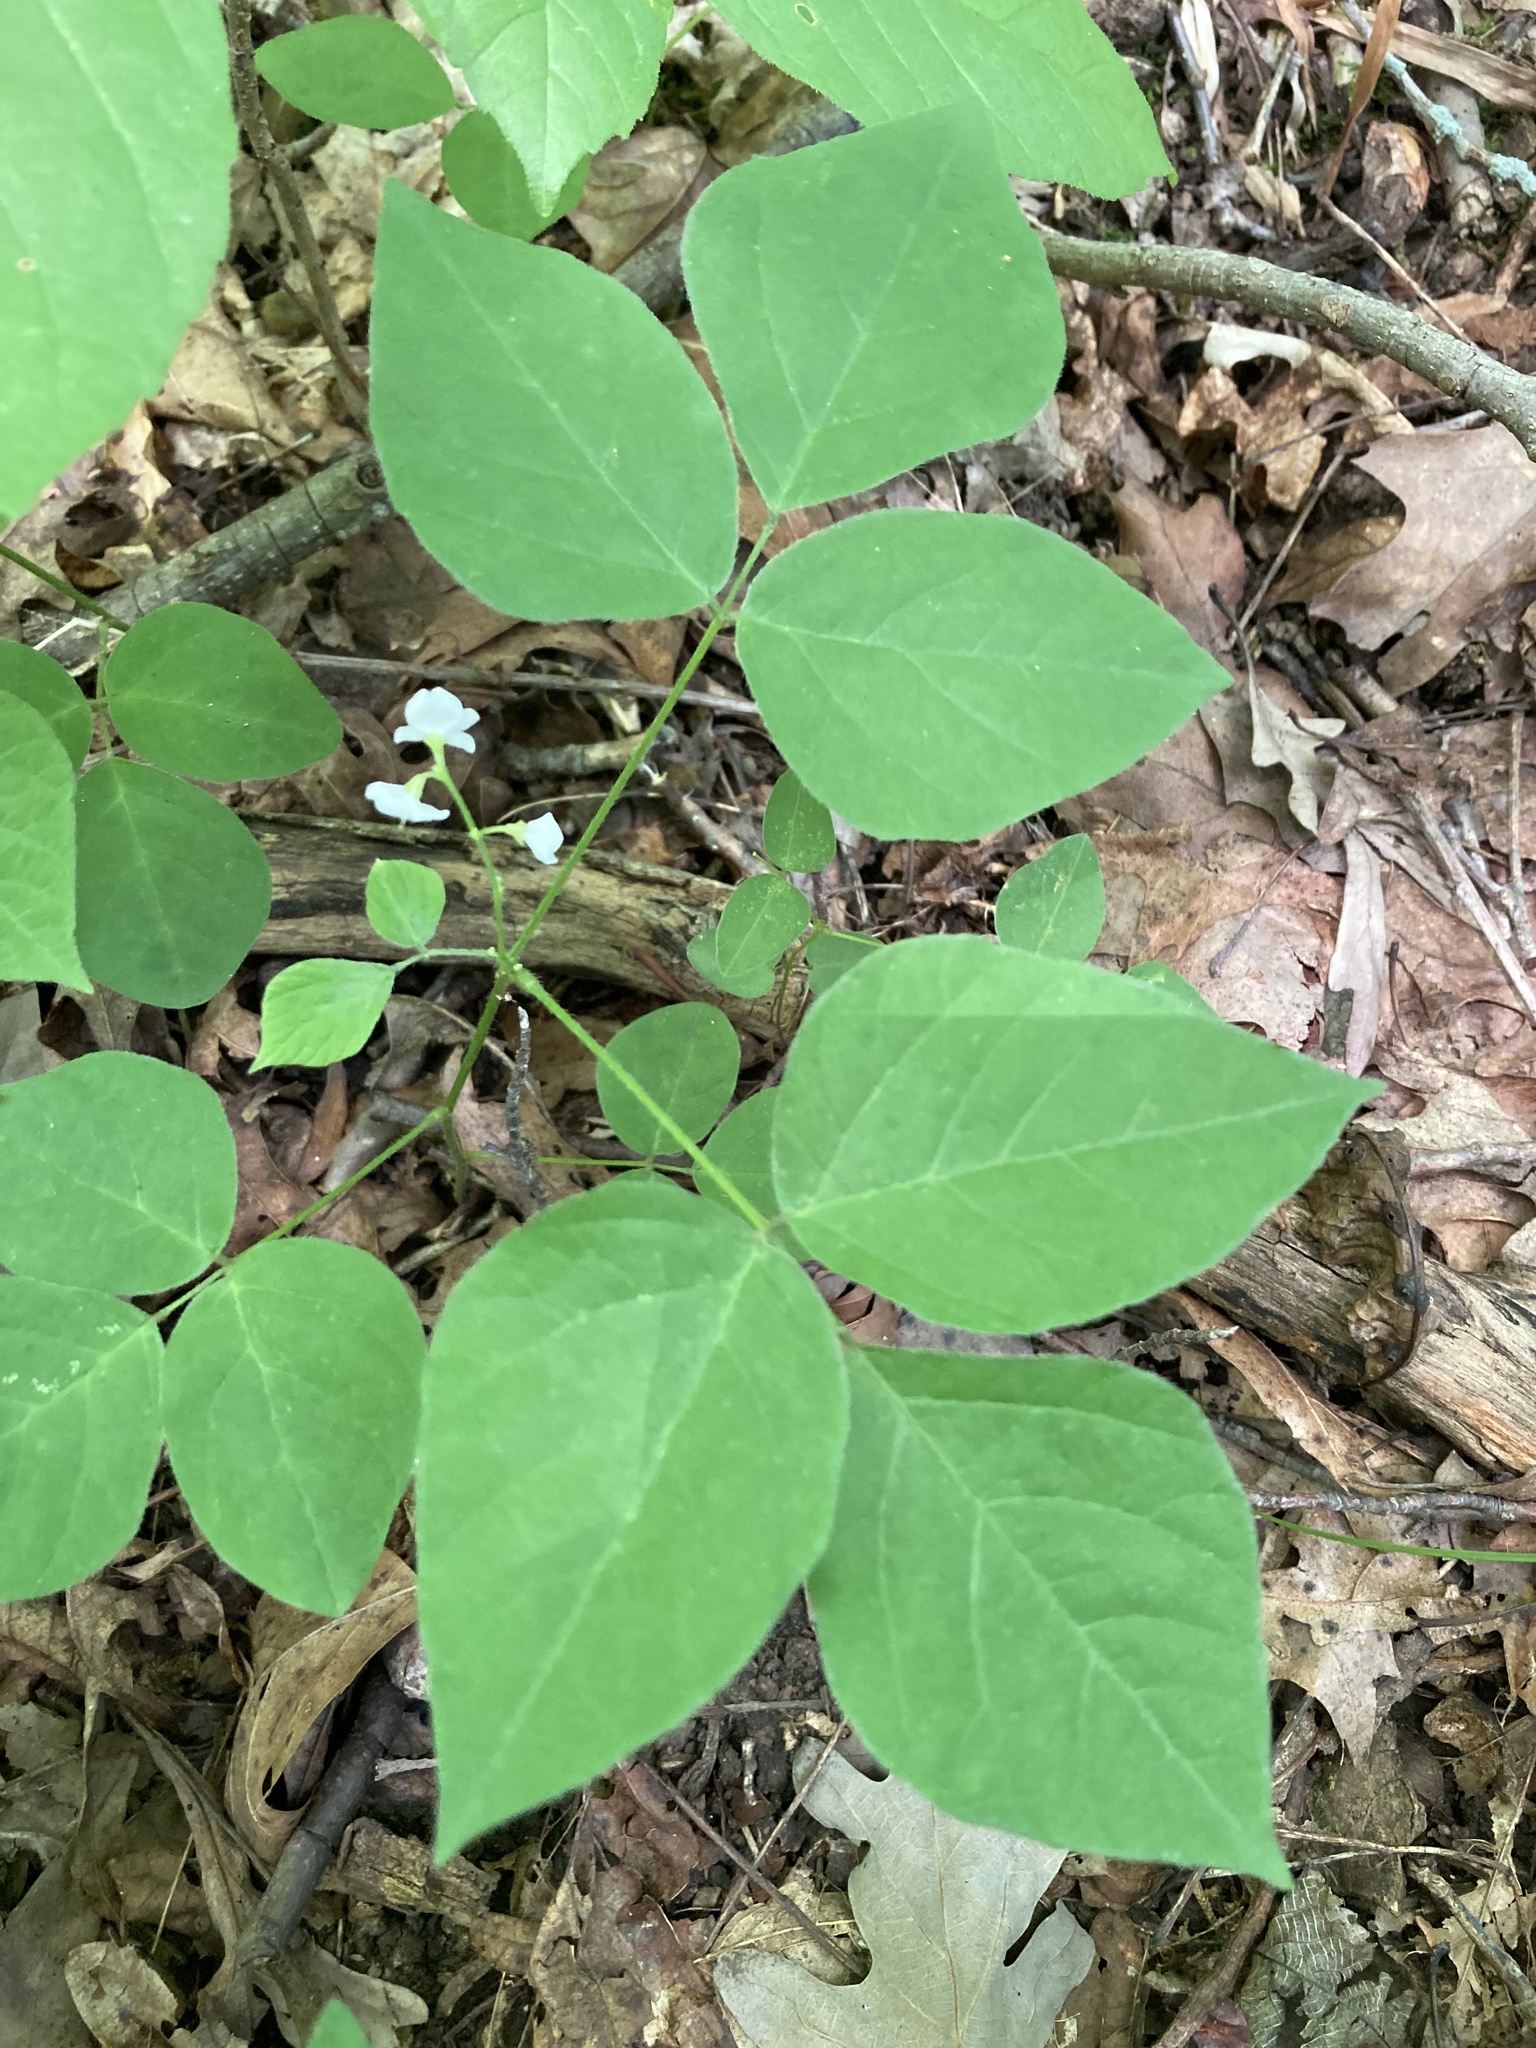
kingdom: Plantae
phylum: Tracheophyta
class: Magnoliopsida
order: Fabales
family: Fabaceae
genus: Hylodesmum
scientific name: Hylodesmum pauciflorum
